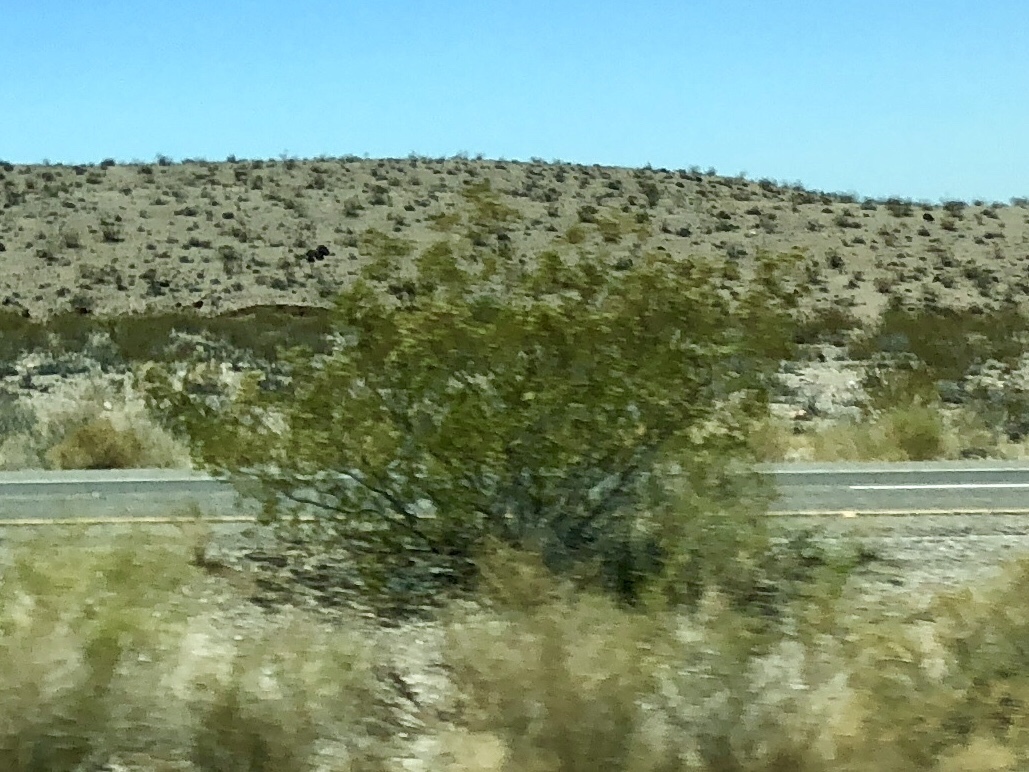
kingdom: Plantae
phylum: Tracheophyta
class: Magnoliopsida
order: Zygophyllales
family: Zygophyllaceae
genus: Larrea
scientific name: Larrea tridentata
